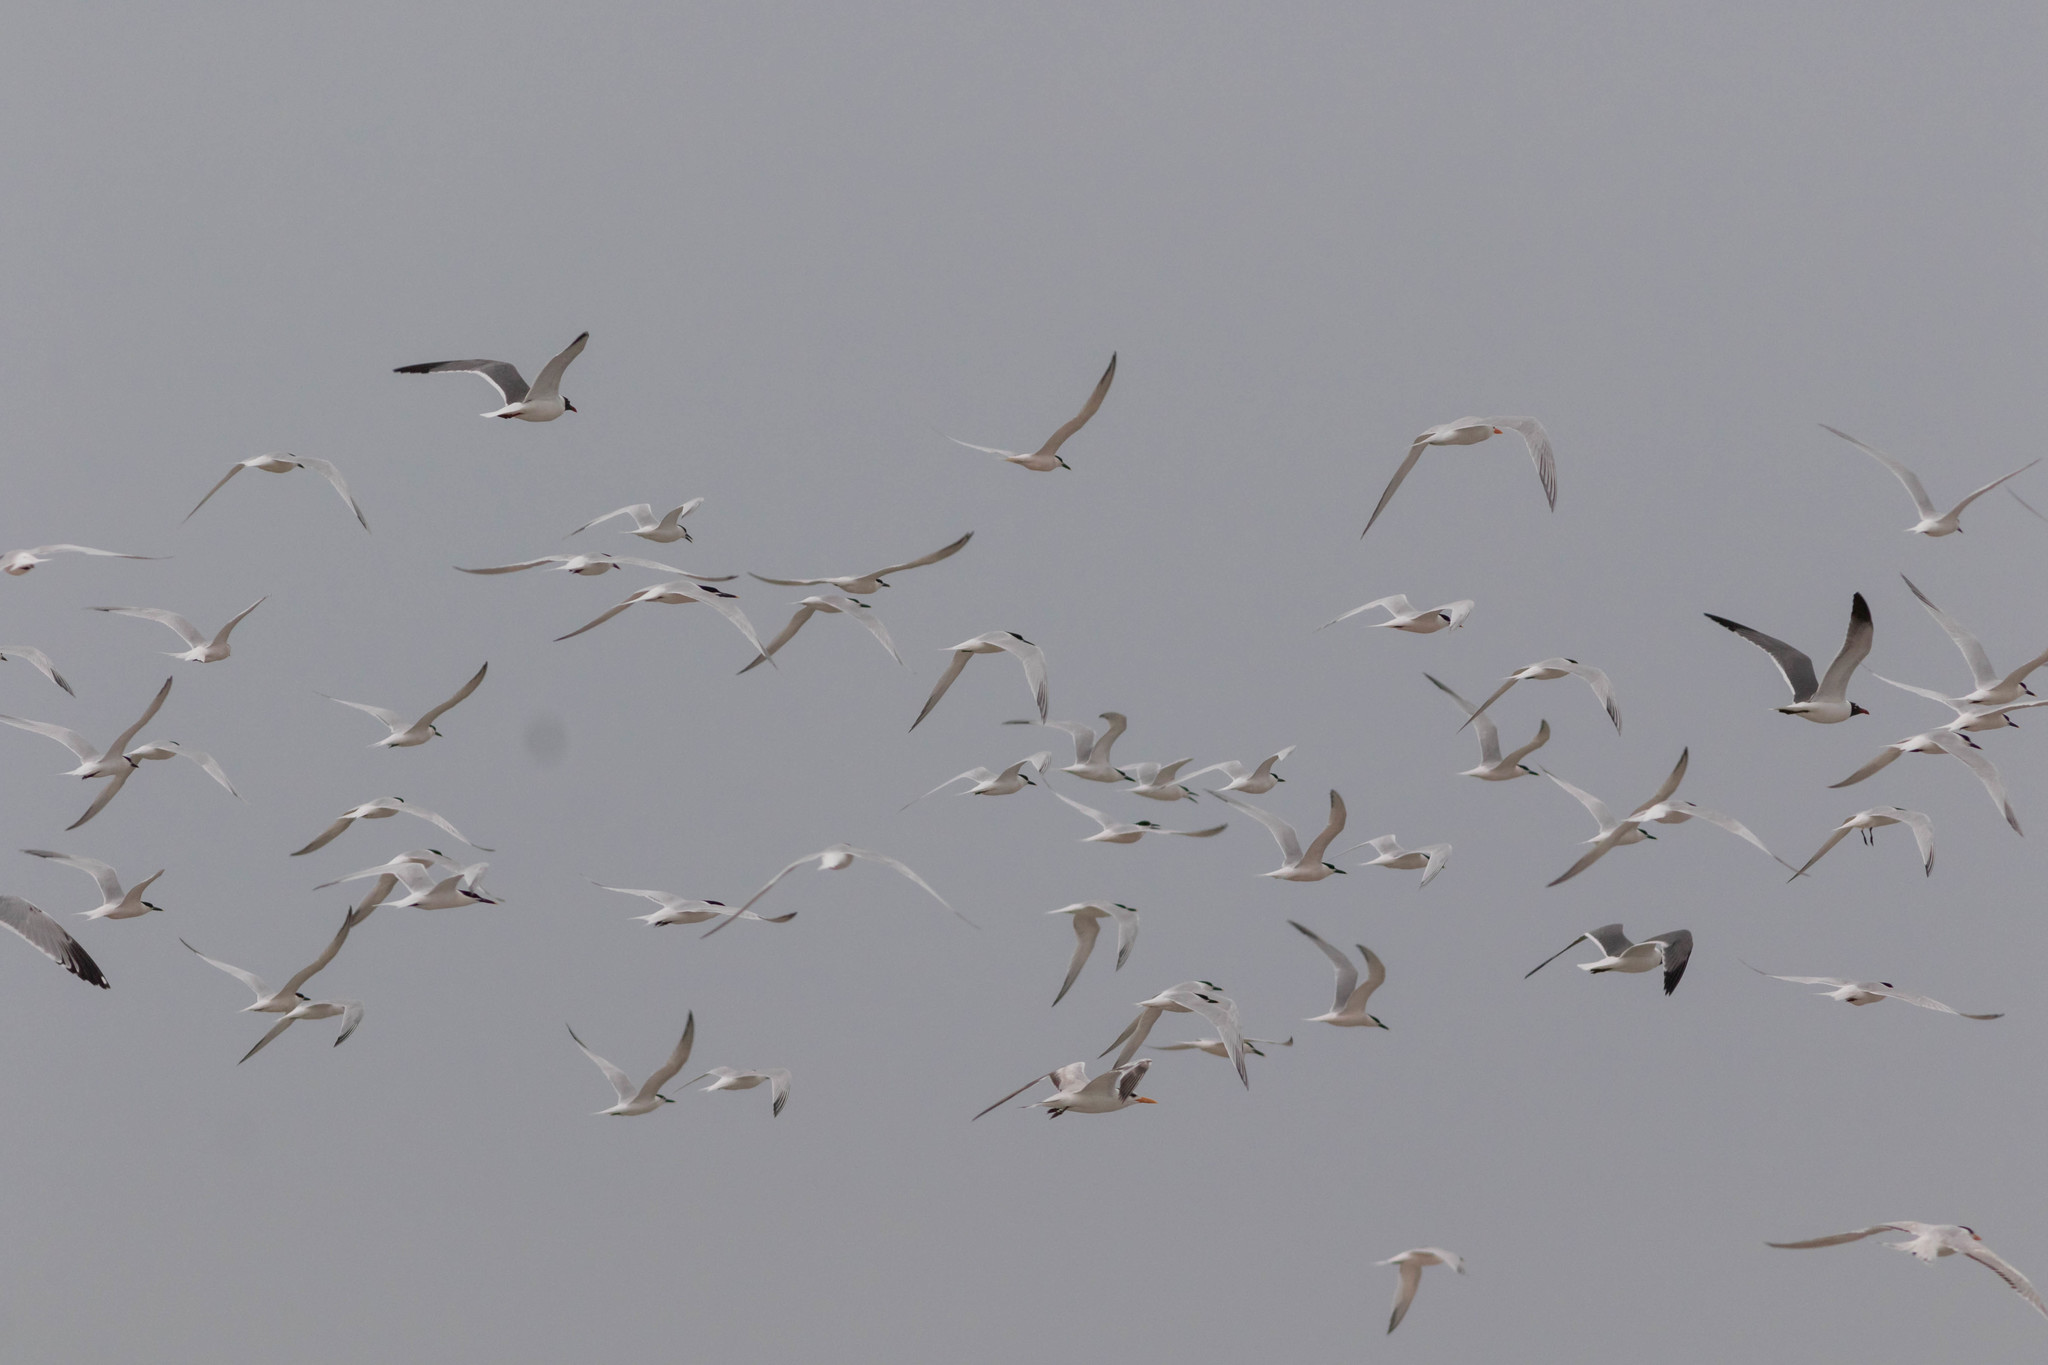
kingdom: Animalia
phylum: Chordata
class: Aves
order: Charadriiformes
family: Laridae
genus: Thalasseus
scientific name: Thalasseus sandvicensis
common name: Sandwich tern
